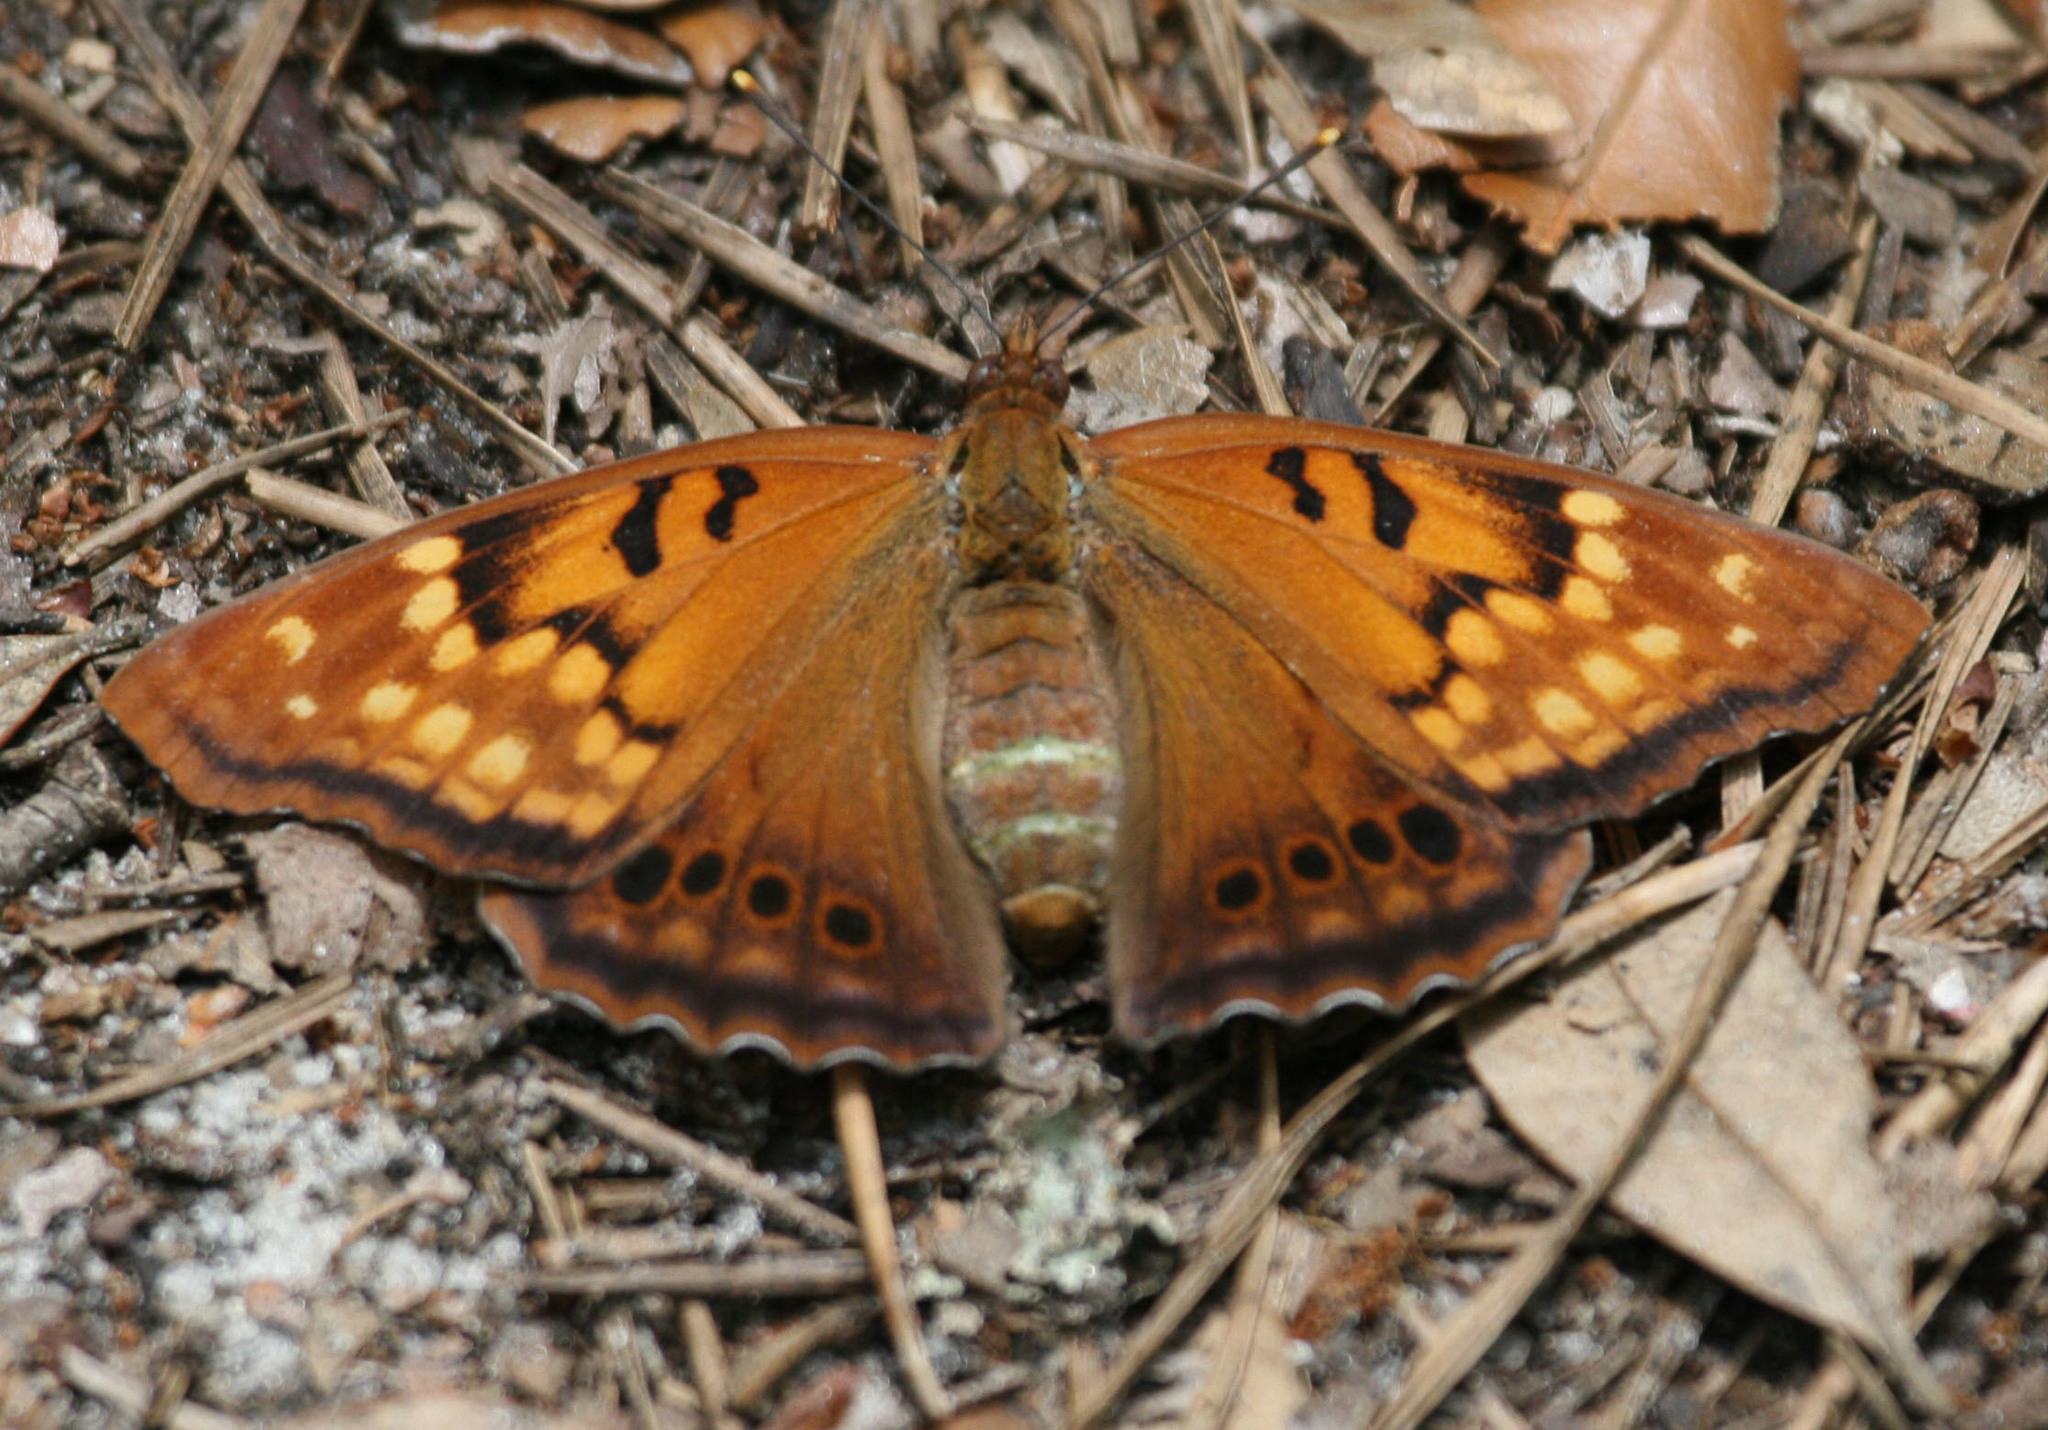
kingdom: Animalia
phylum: Arthropoda
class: Insecta
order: Lepidoptera
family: Nymphalidae
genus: Asterocampa
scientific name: Asterocampa clyton
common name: Tawny emperor
